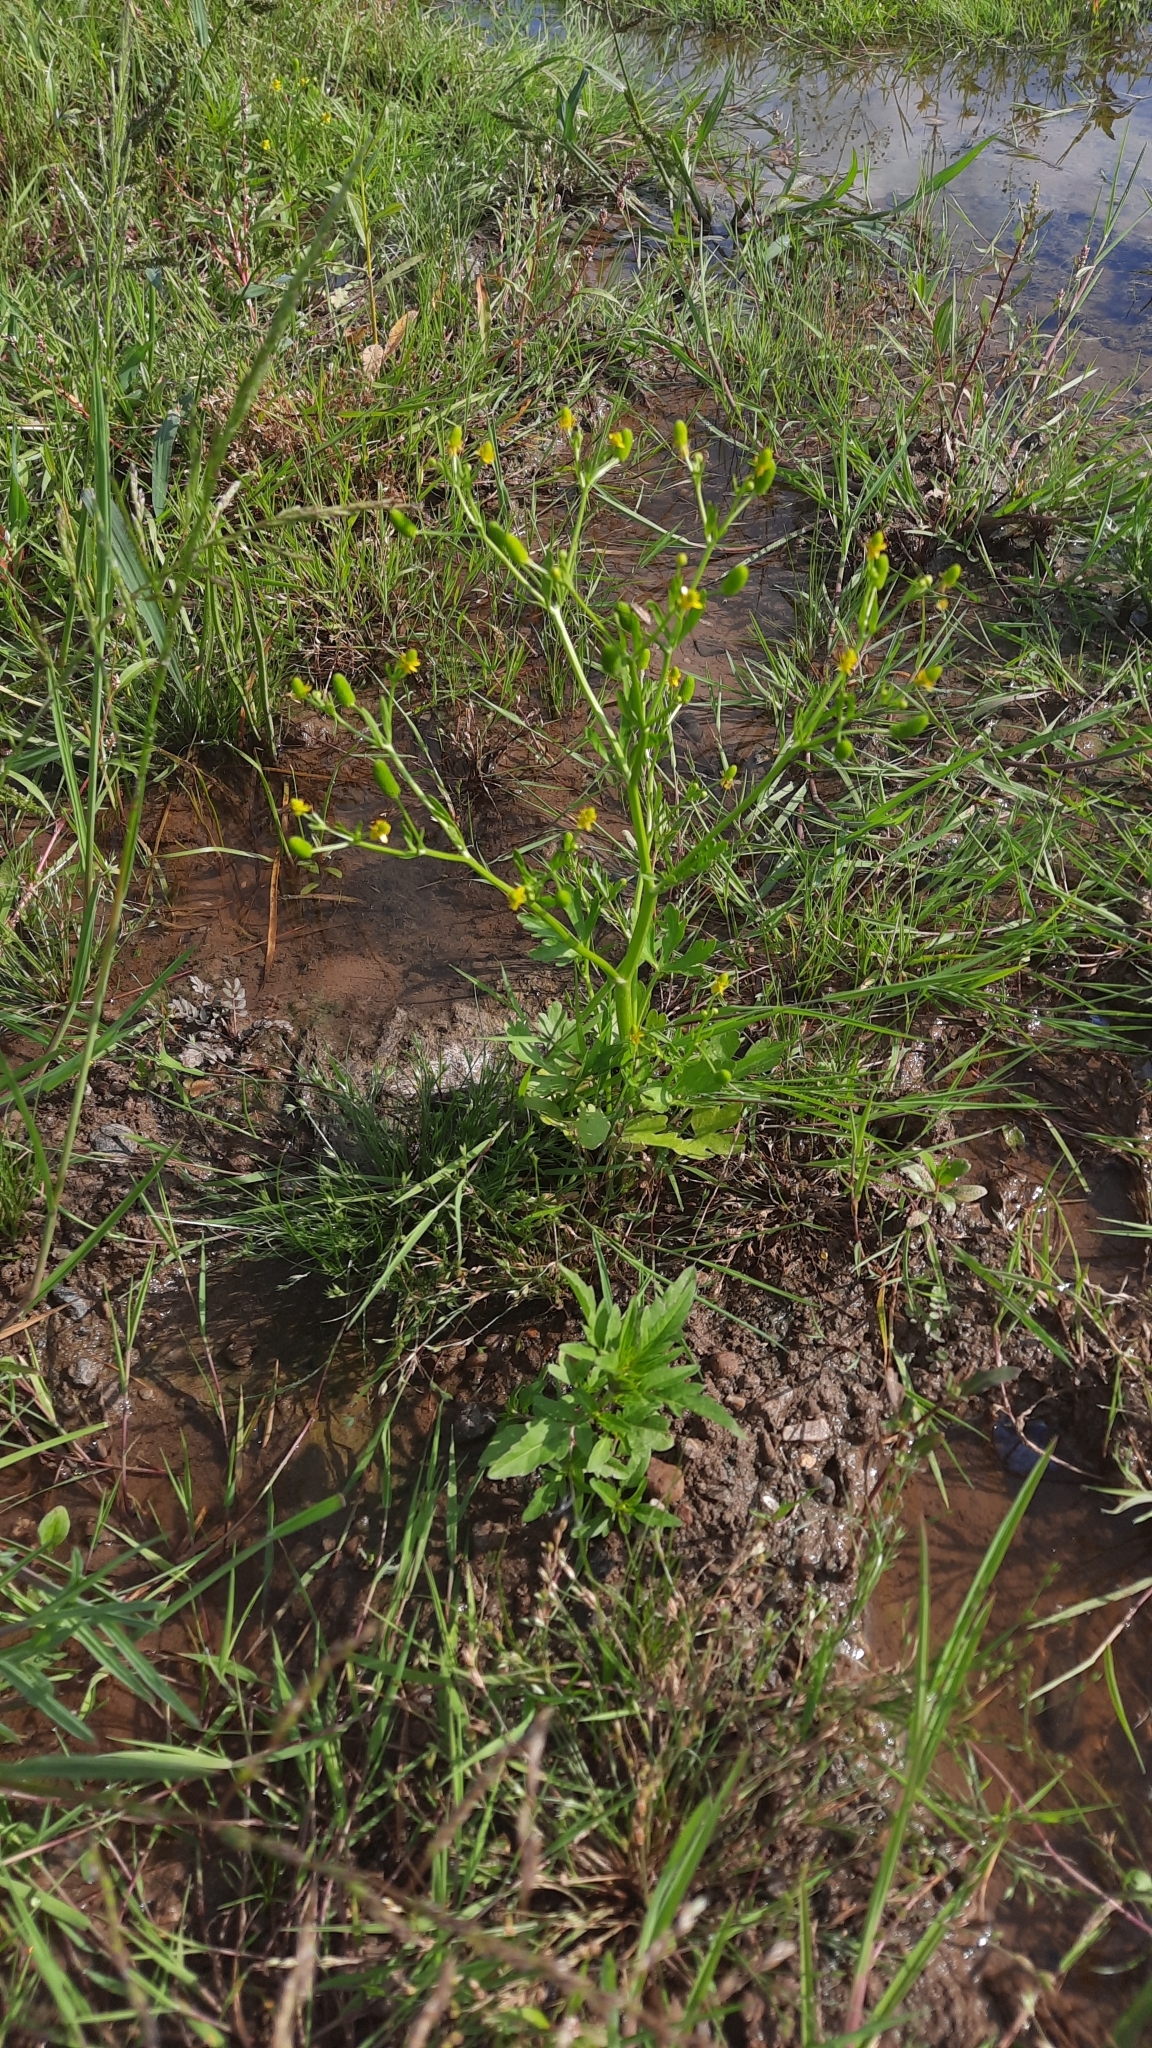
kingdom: Plantae
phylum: Tracheophyta
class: Magnoliopsida
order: Ranunculales
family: Ranunculaceae
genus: Ranunculus
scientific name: Ranunculus sceleratus
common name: Celery-leaved buttercup
